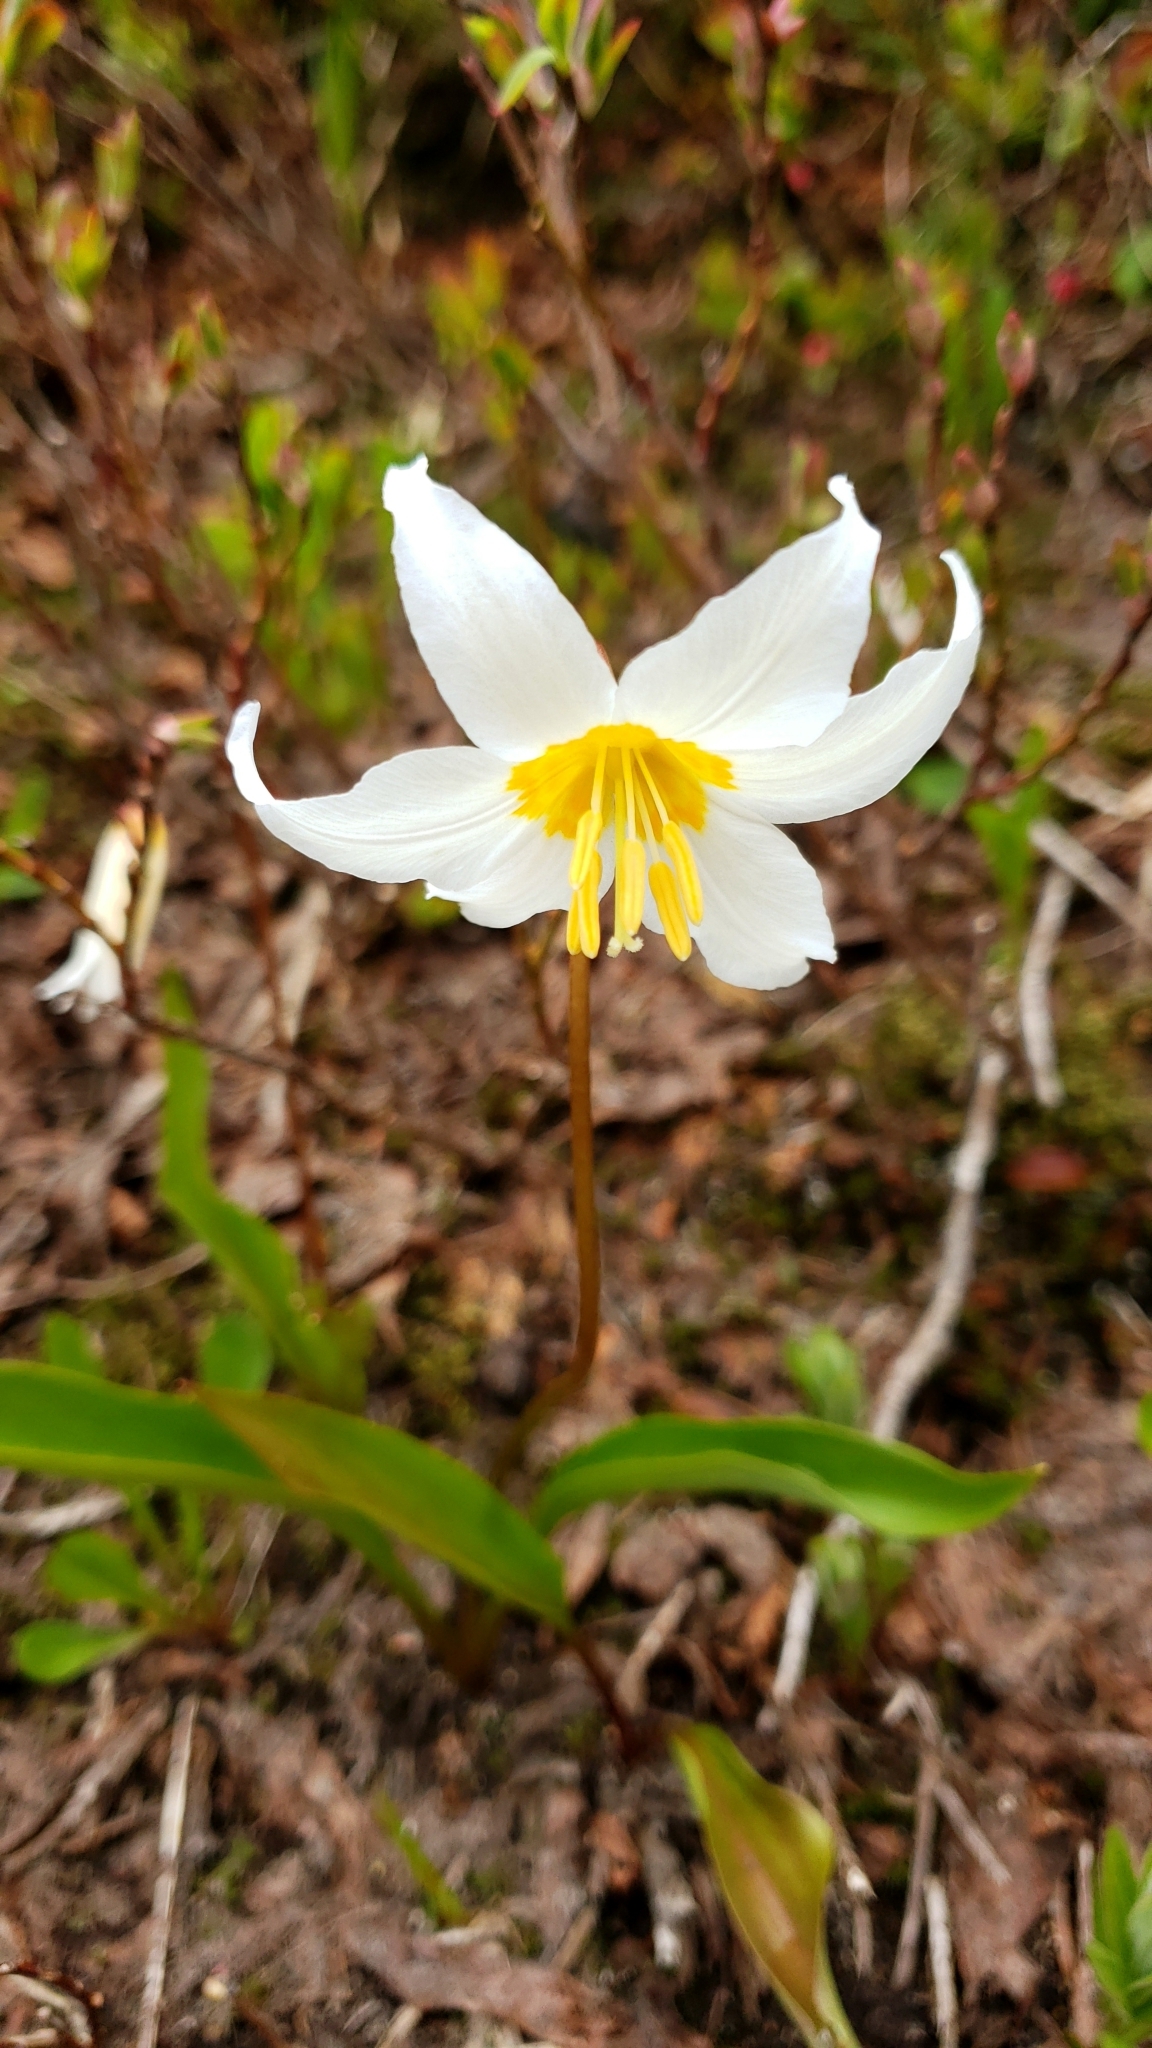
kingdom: Plantae
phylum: Tracheophyta
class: Liliopsida
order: Liliales
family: Liliaceae
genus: Erythronium
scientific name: Erythronium montanum
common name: Avalanche lily
